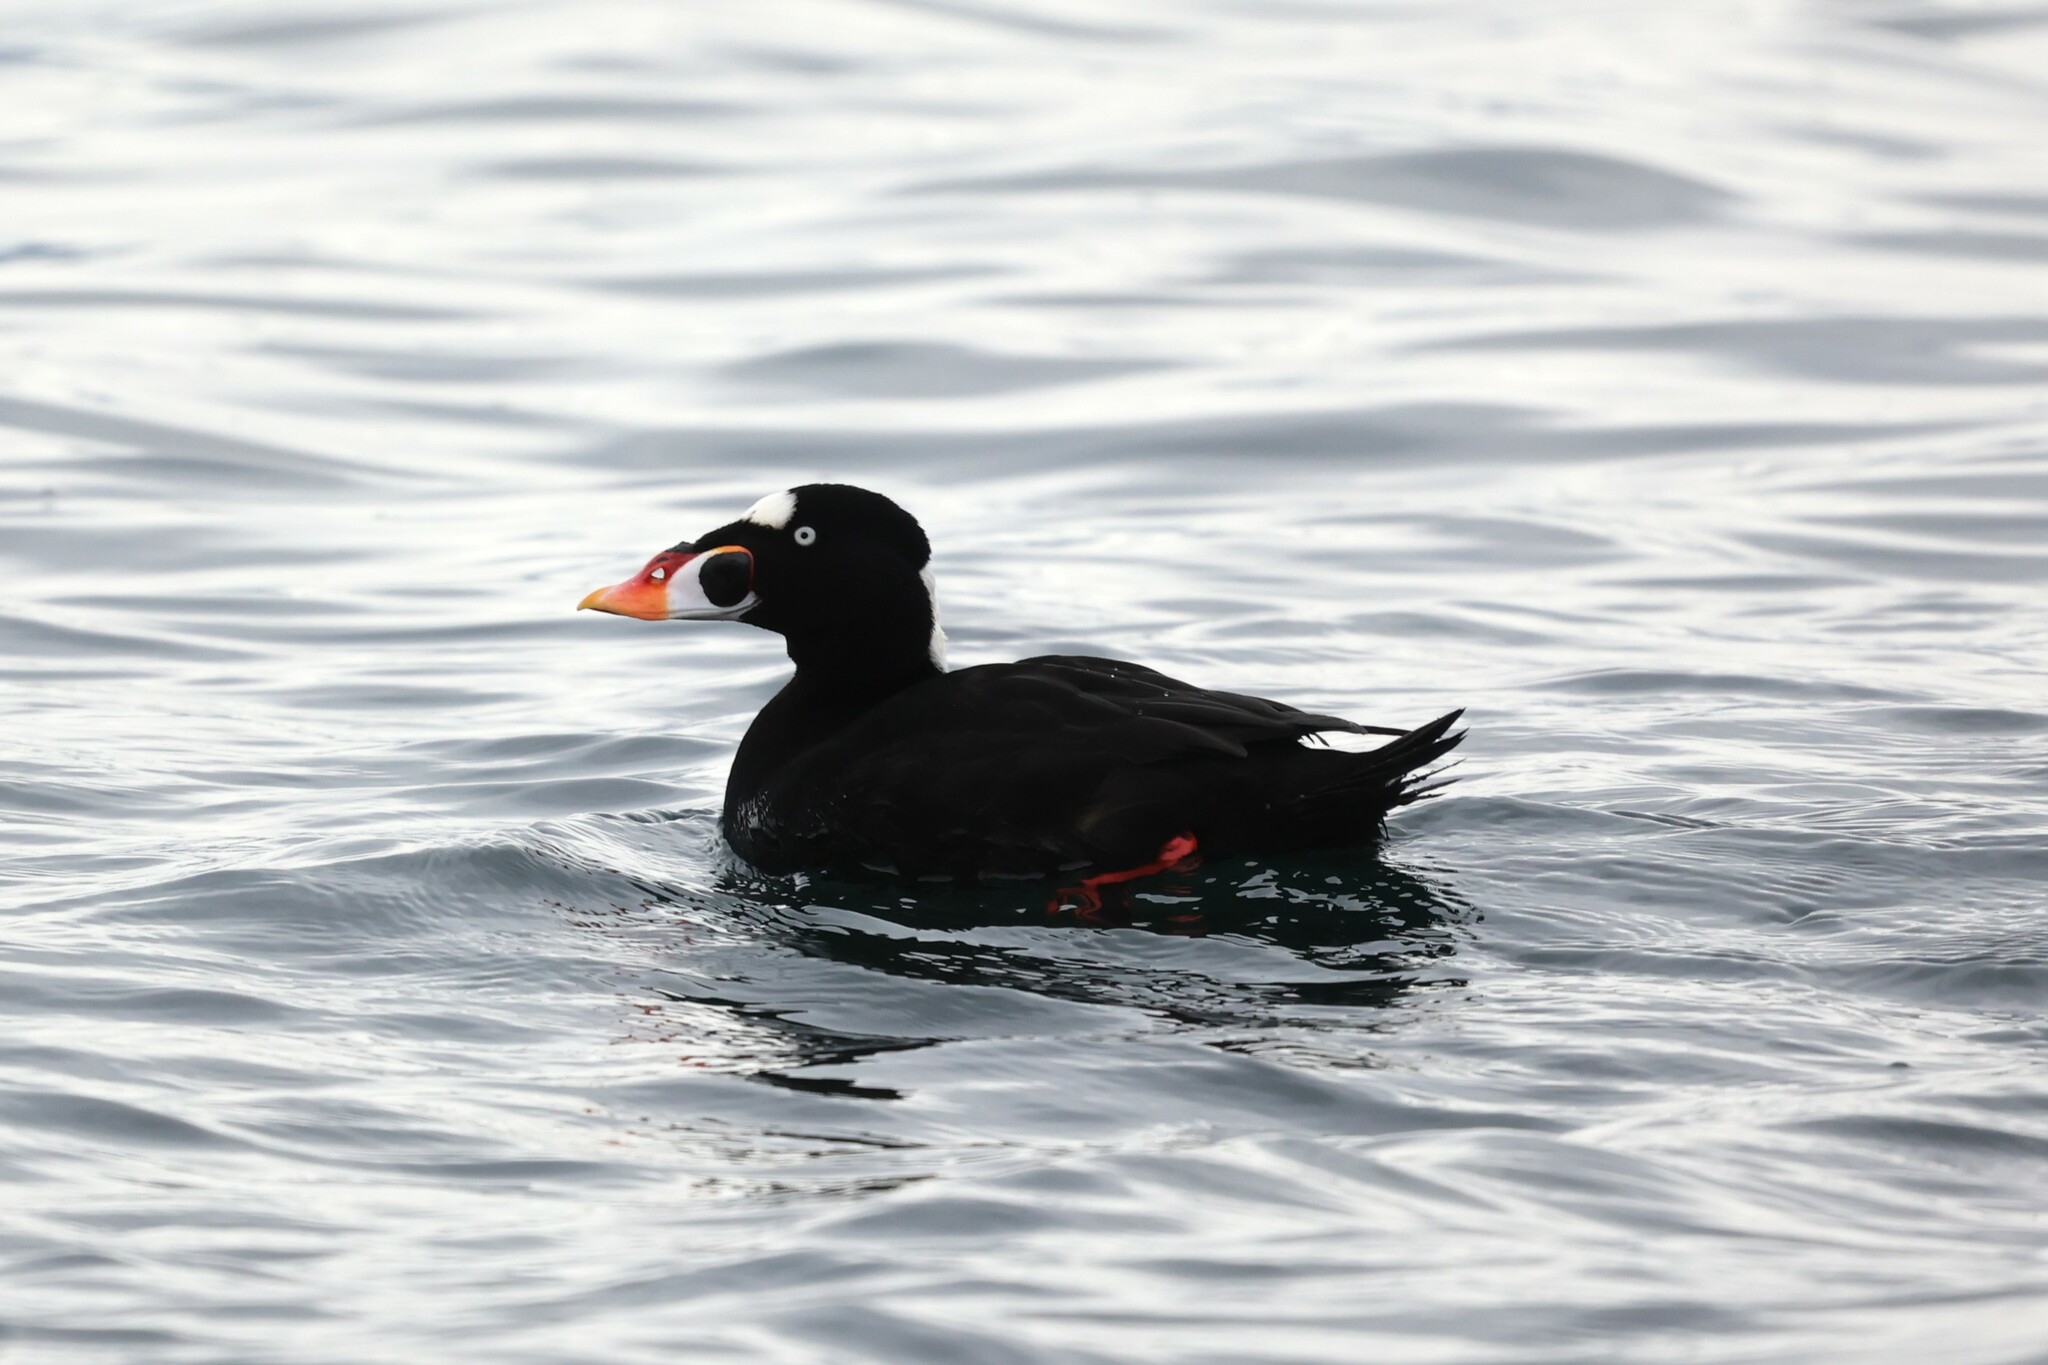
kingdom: Animalia
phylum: Chordata
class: Aves
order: Anseriformes
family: Anatidae
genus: Melanitta
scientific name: Melanitta perspicillata
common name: Surf scoter
